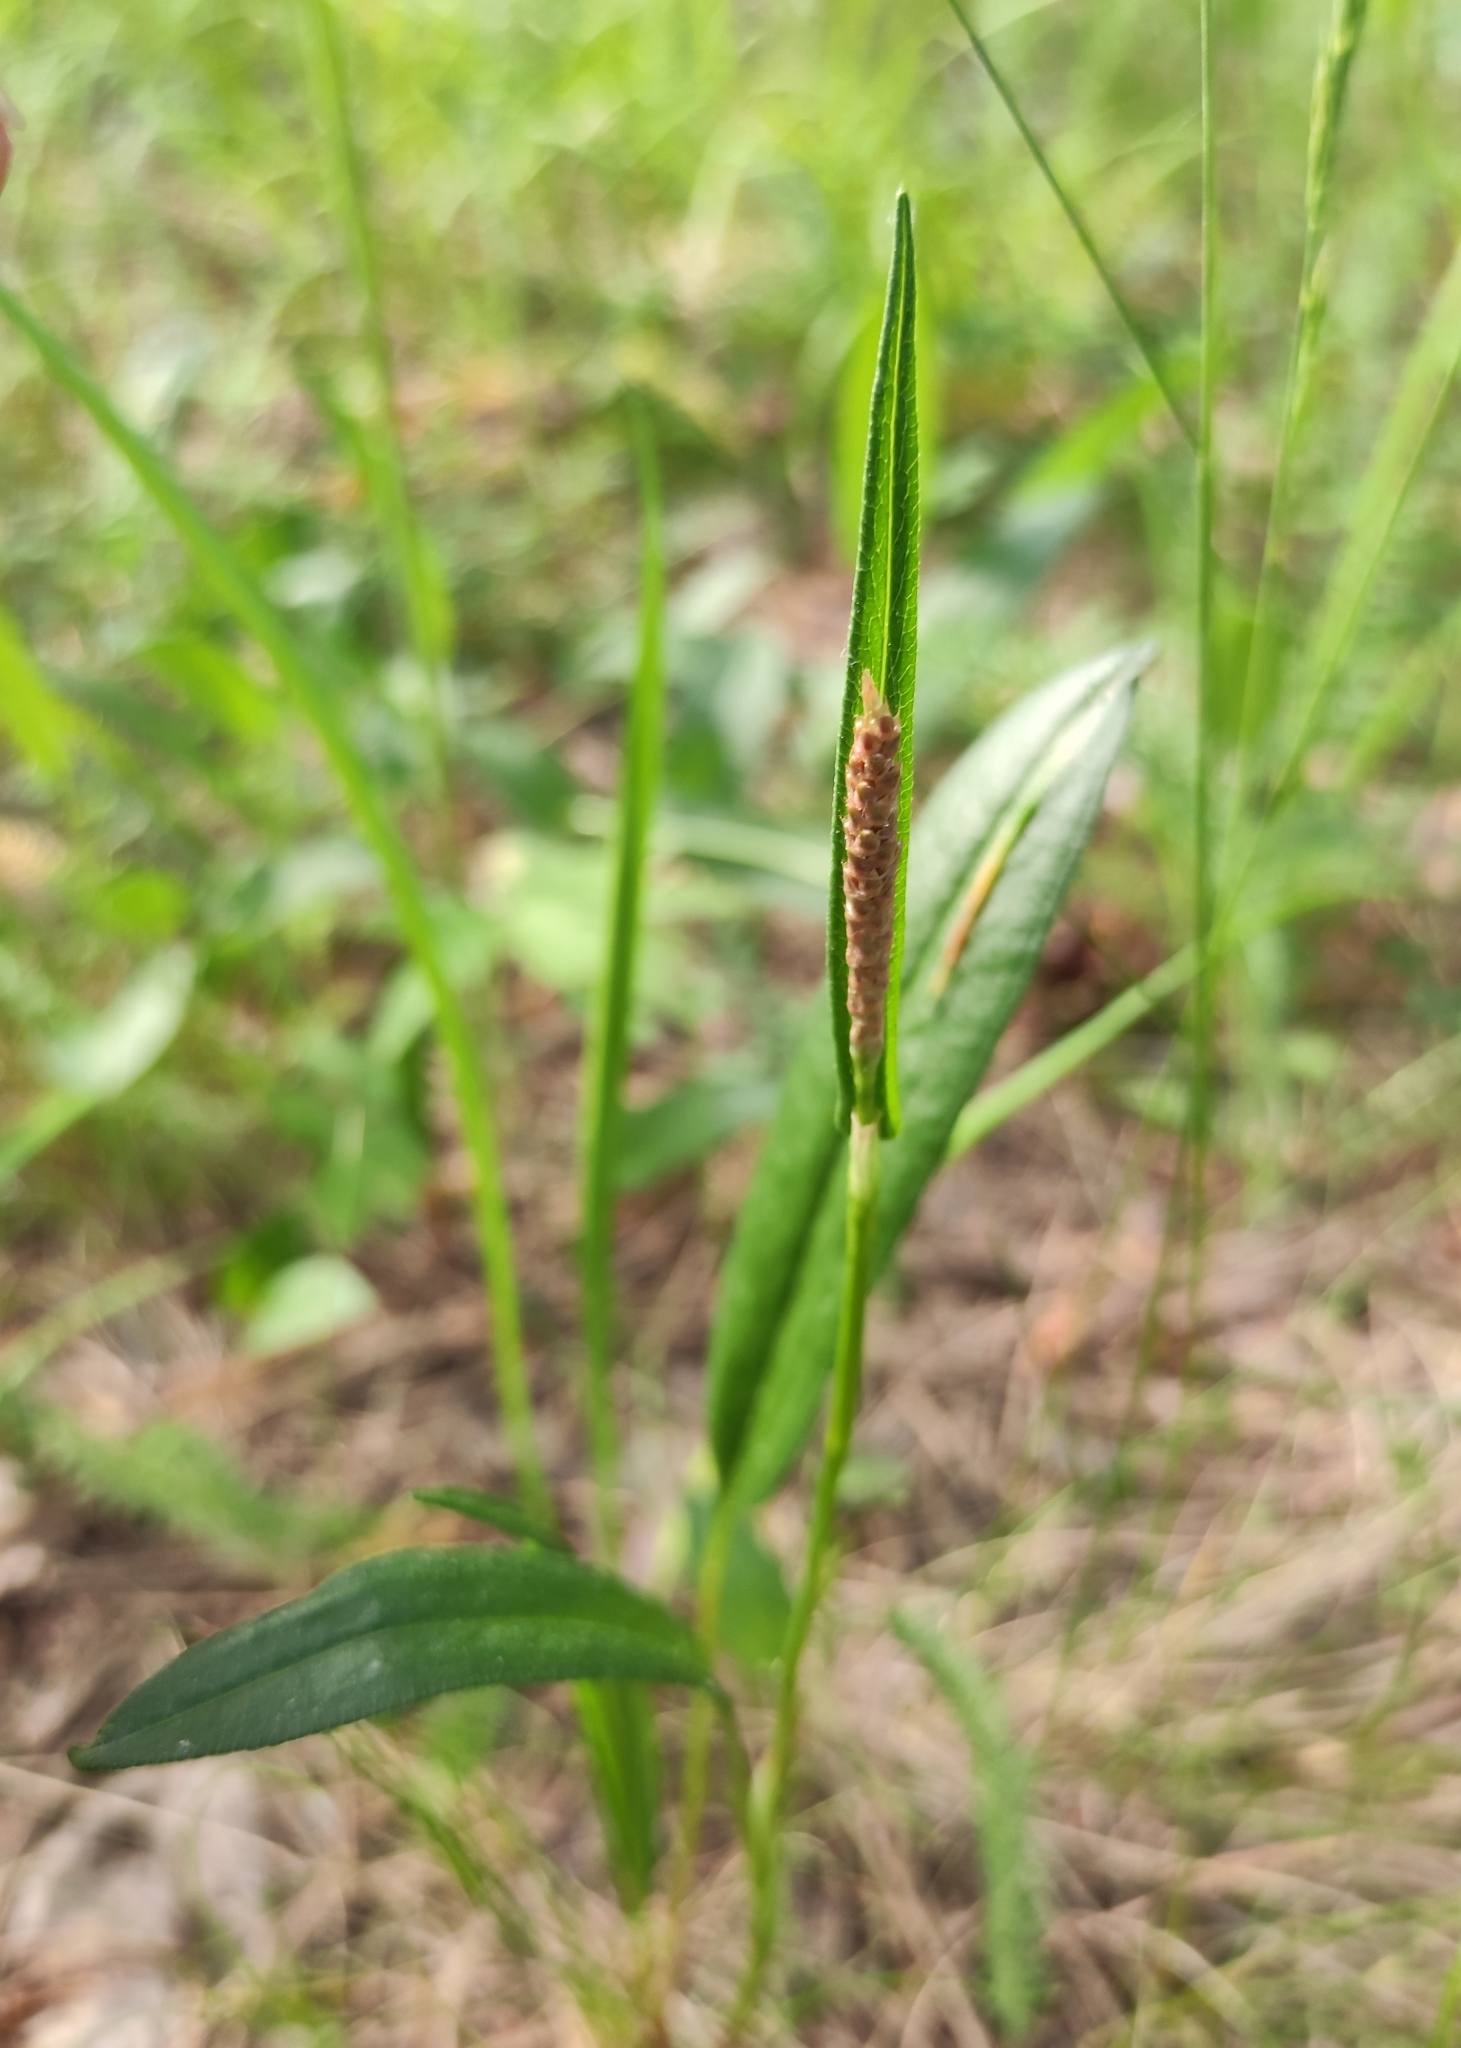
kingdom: Plantae
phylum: Tracheophyta
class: Magnoliopsida
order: Caryophyllales
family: Polygonaceae
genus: Bistorta
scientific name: Bistorta vivipara
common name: Alpine bistort
